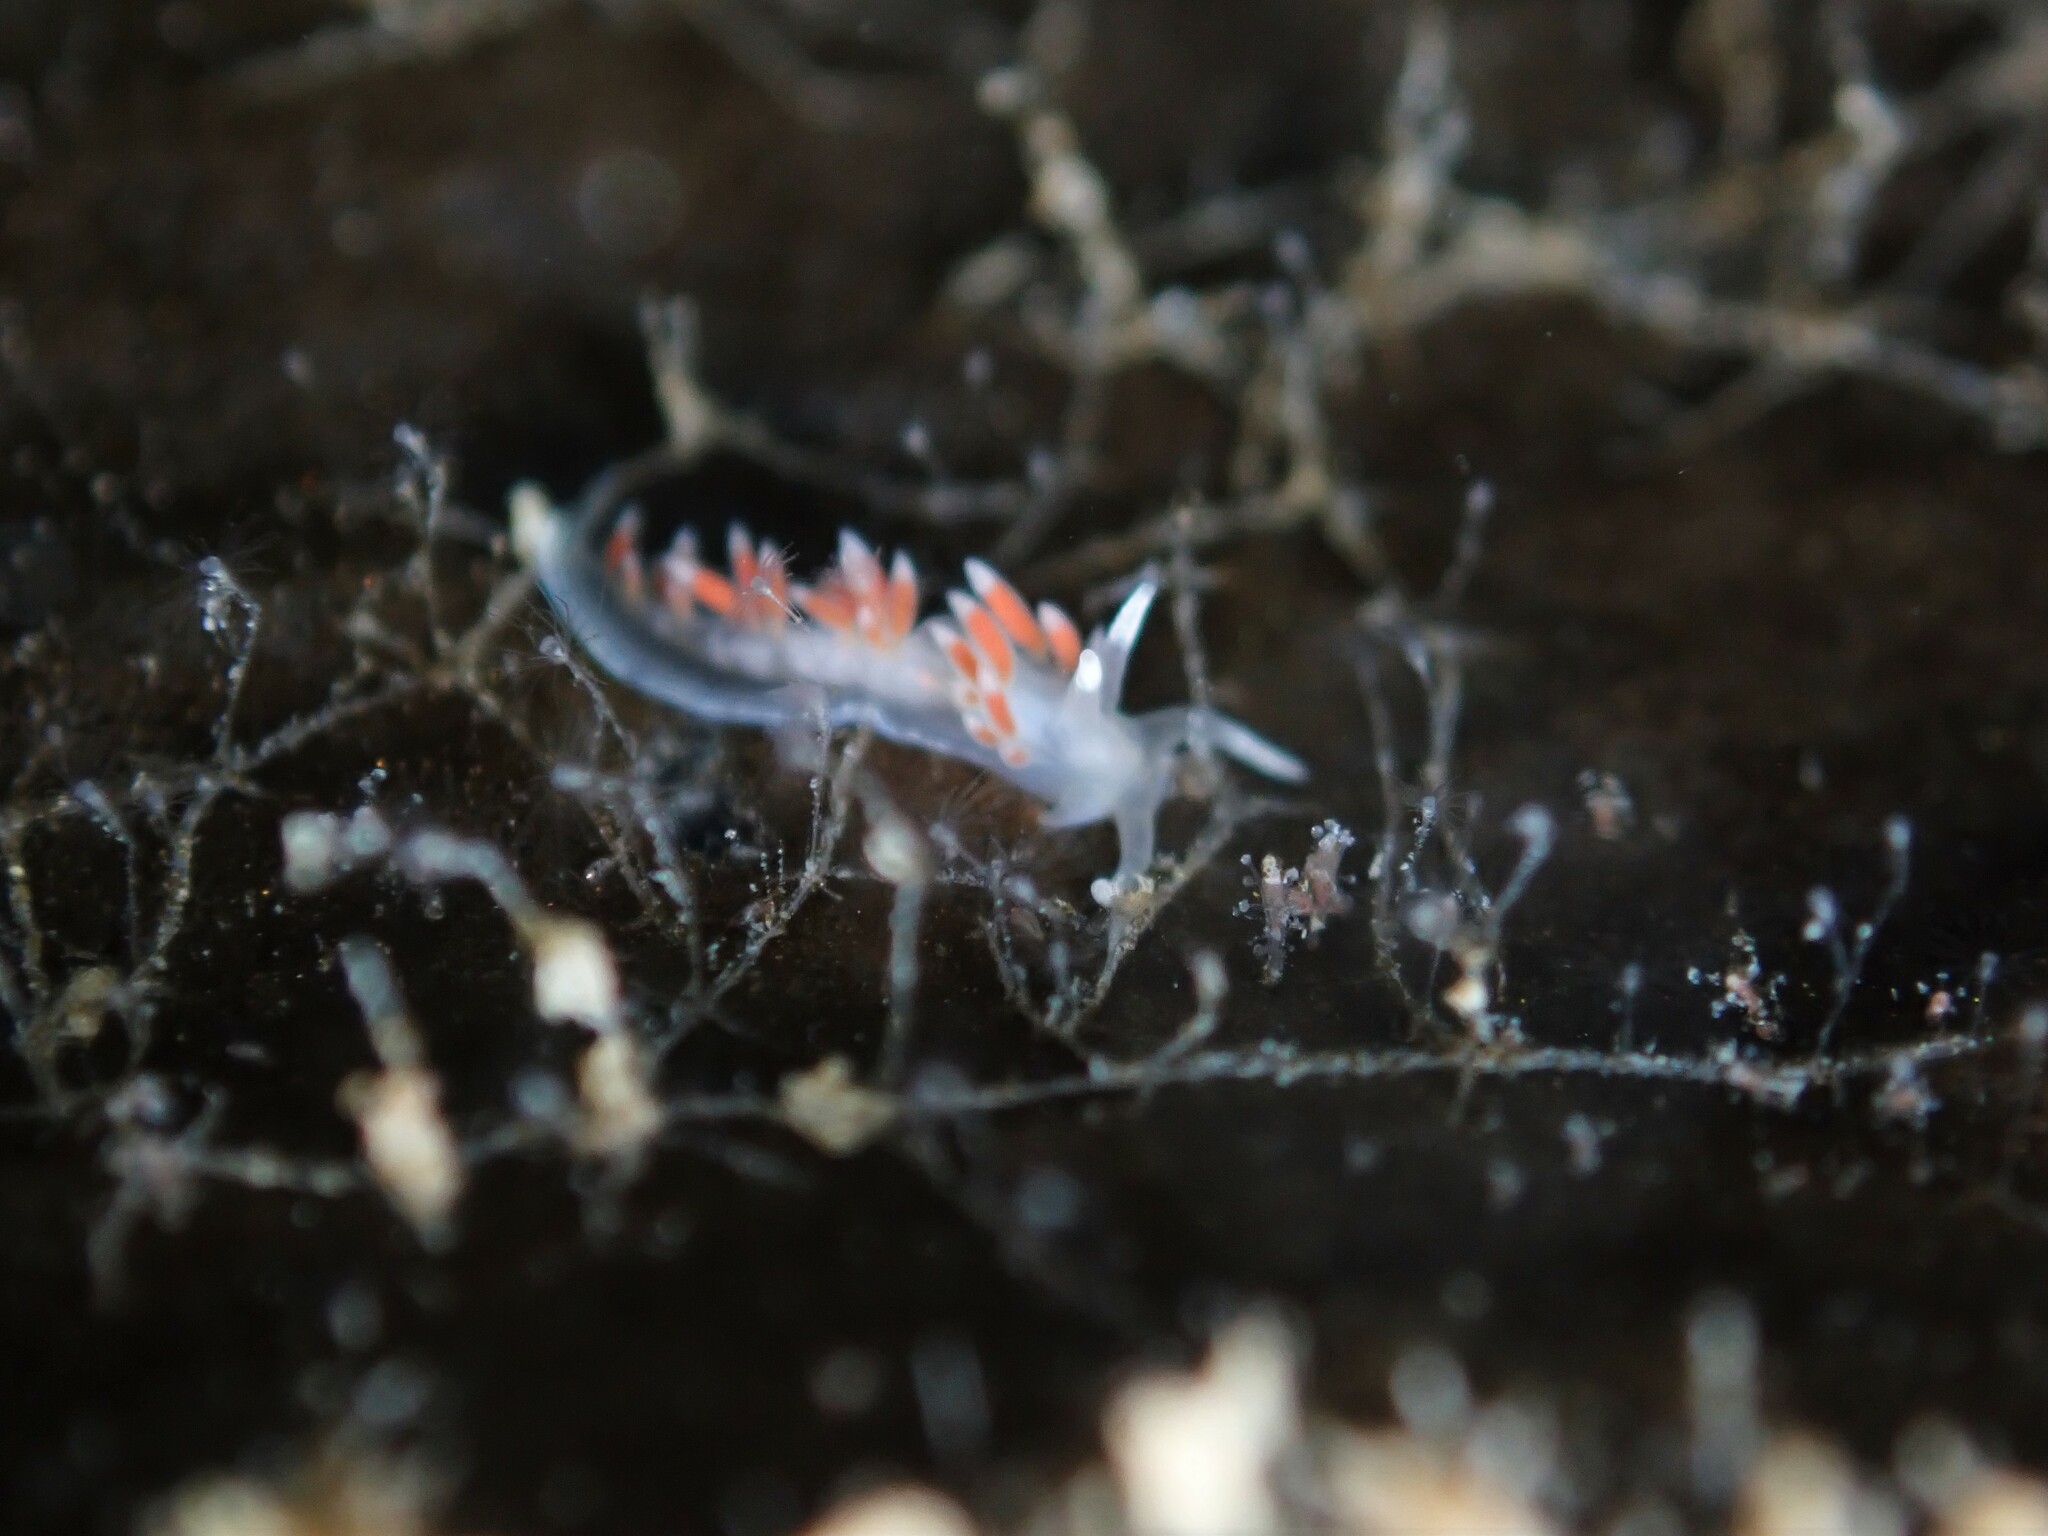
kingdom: Animalia
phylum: Mollusca
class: Gastropoda
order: Nudibranchia
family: Flabellinidae
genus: Coryphellina
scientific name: Coryphellina albomarginata
